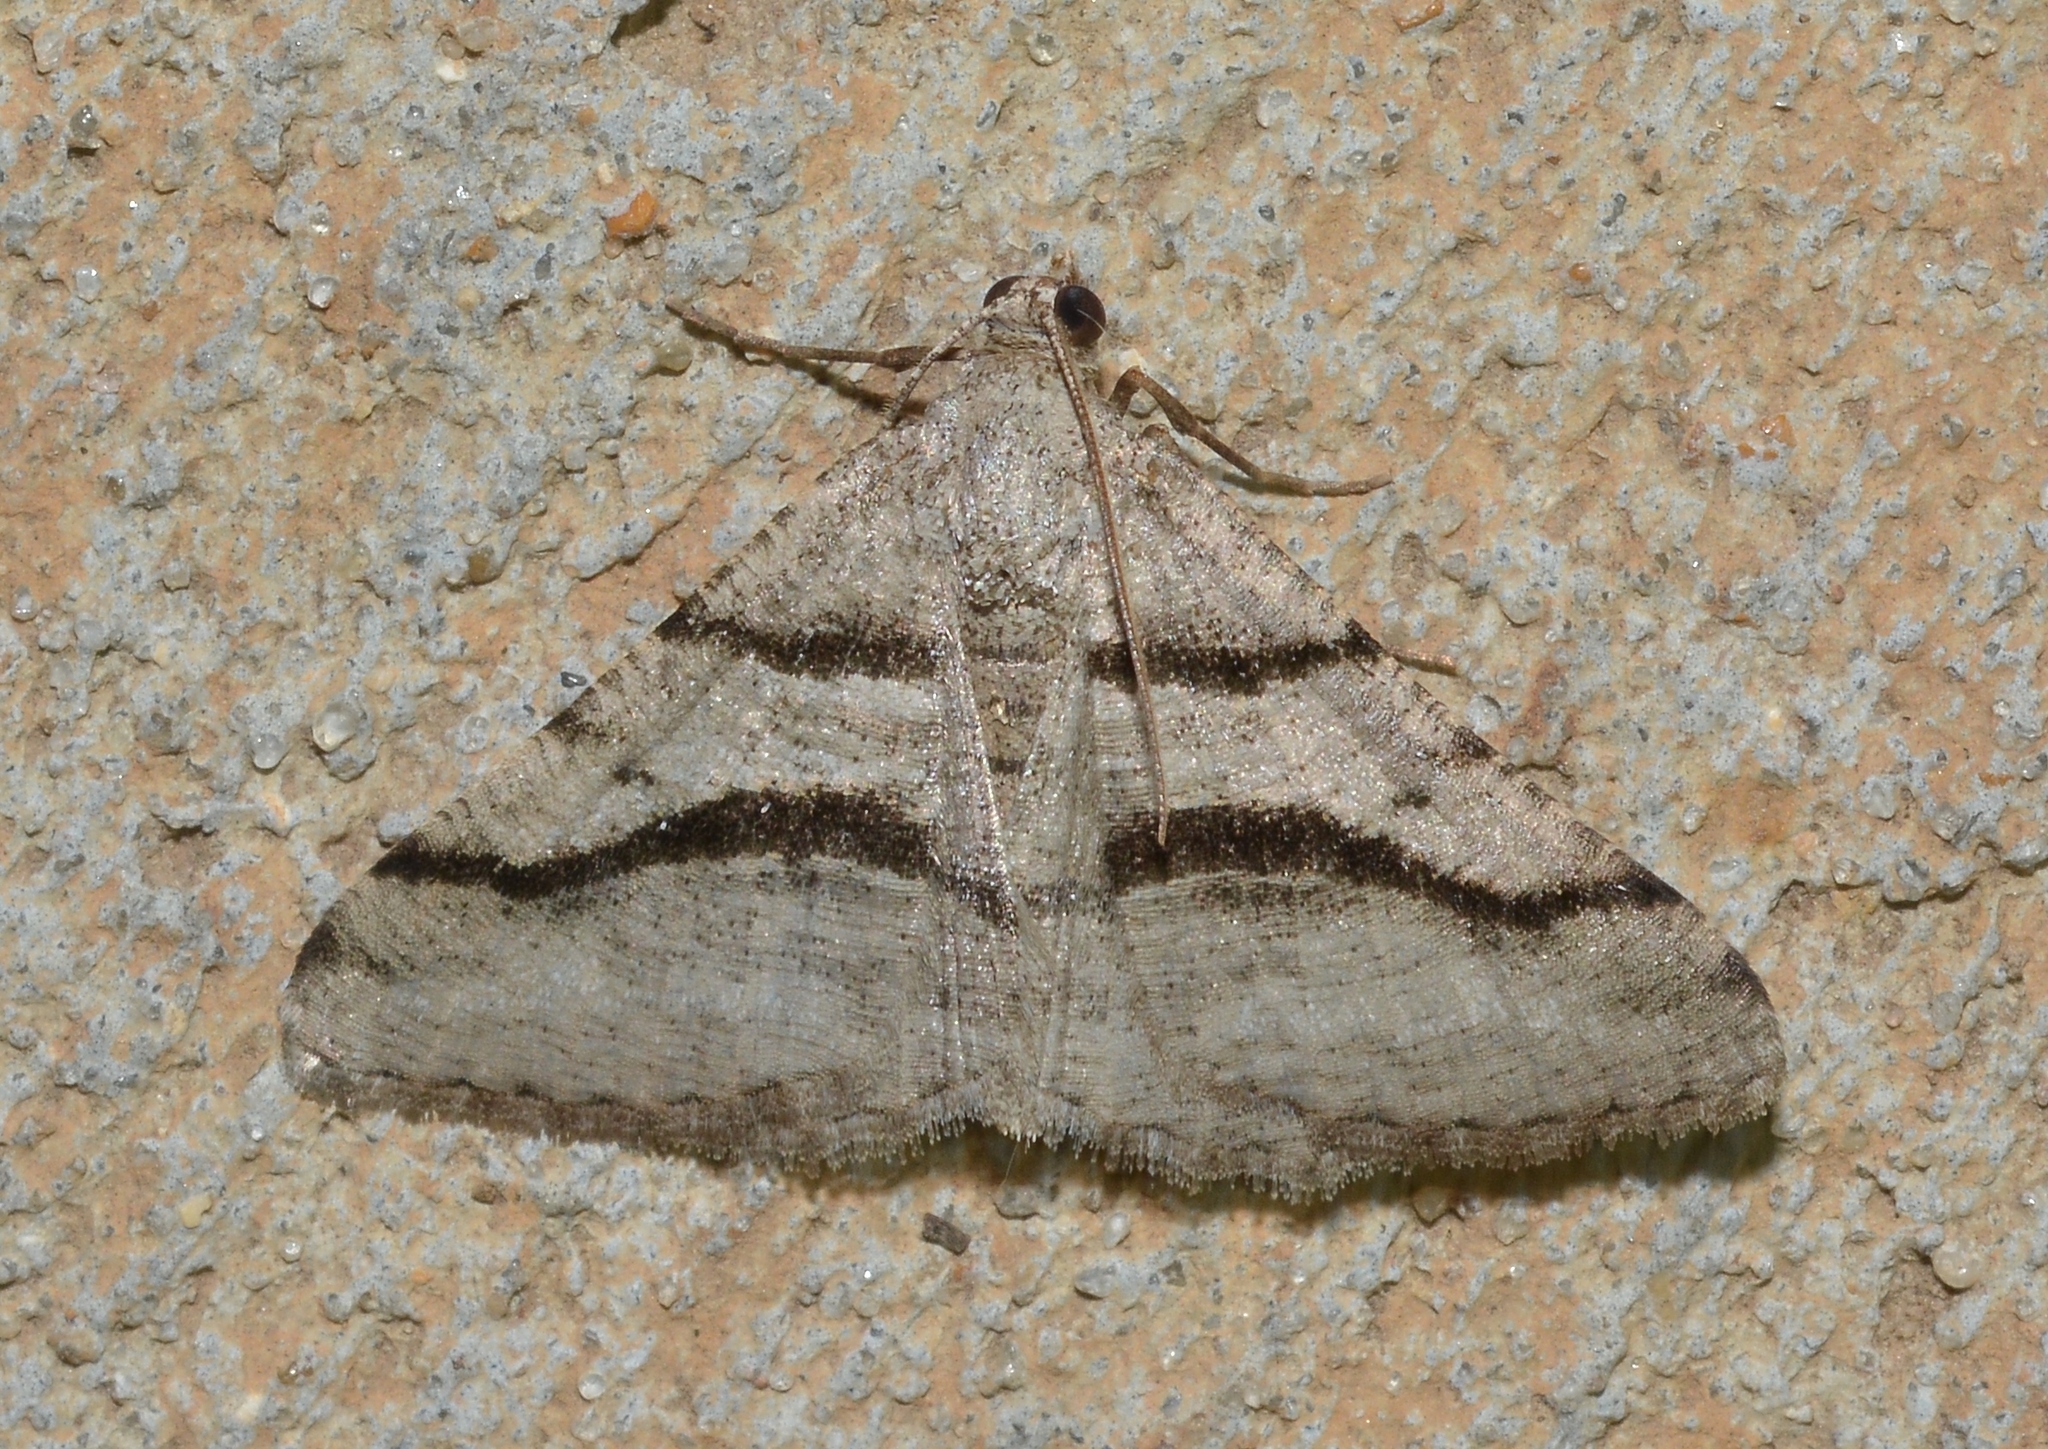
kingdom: Animalia
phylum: Arthropoda
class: Insecta
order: Lepidoptera
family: Geometridae
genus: Digrammia
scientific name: Digrammia continuata
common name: Curve-lined angle
